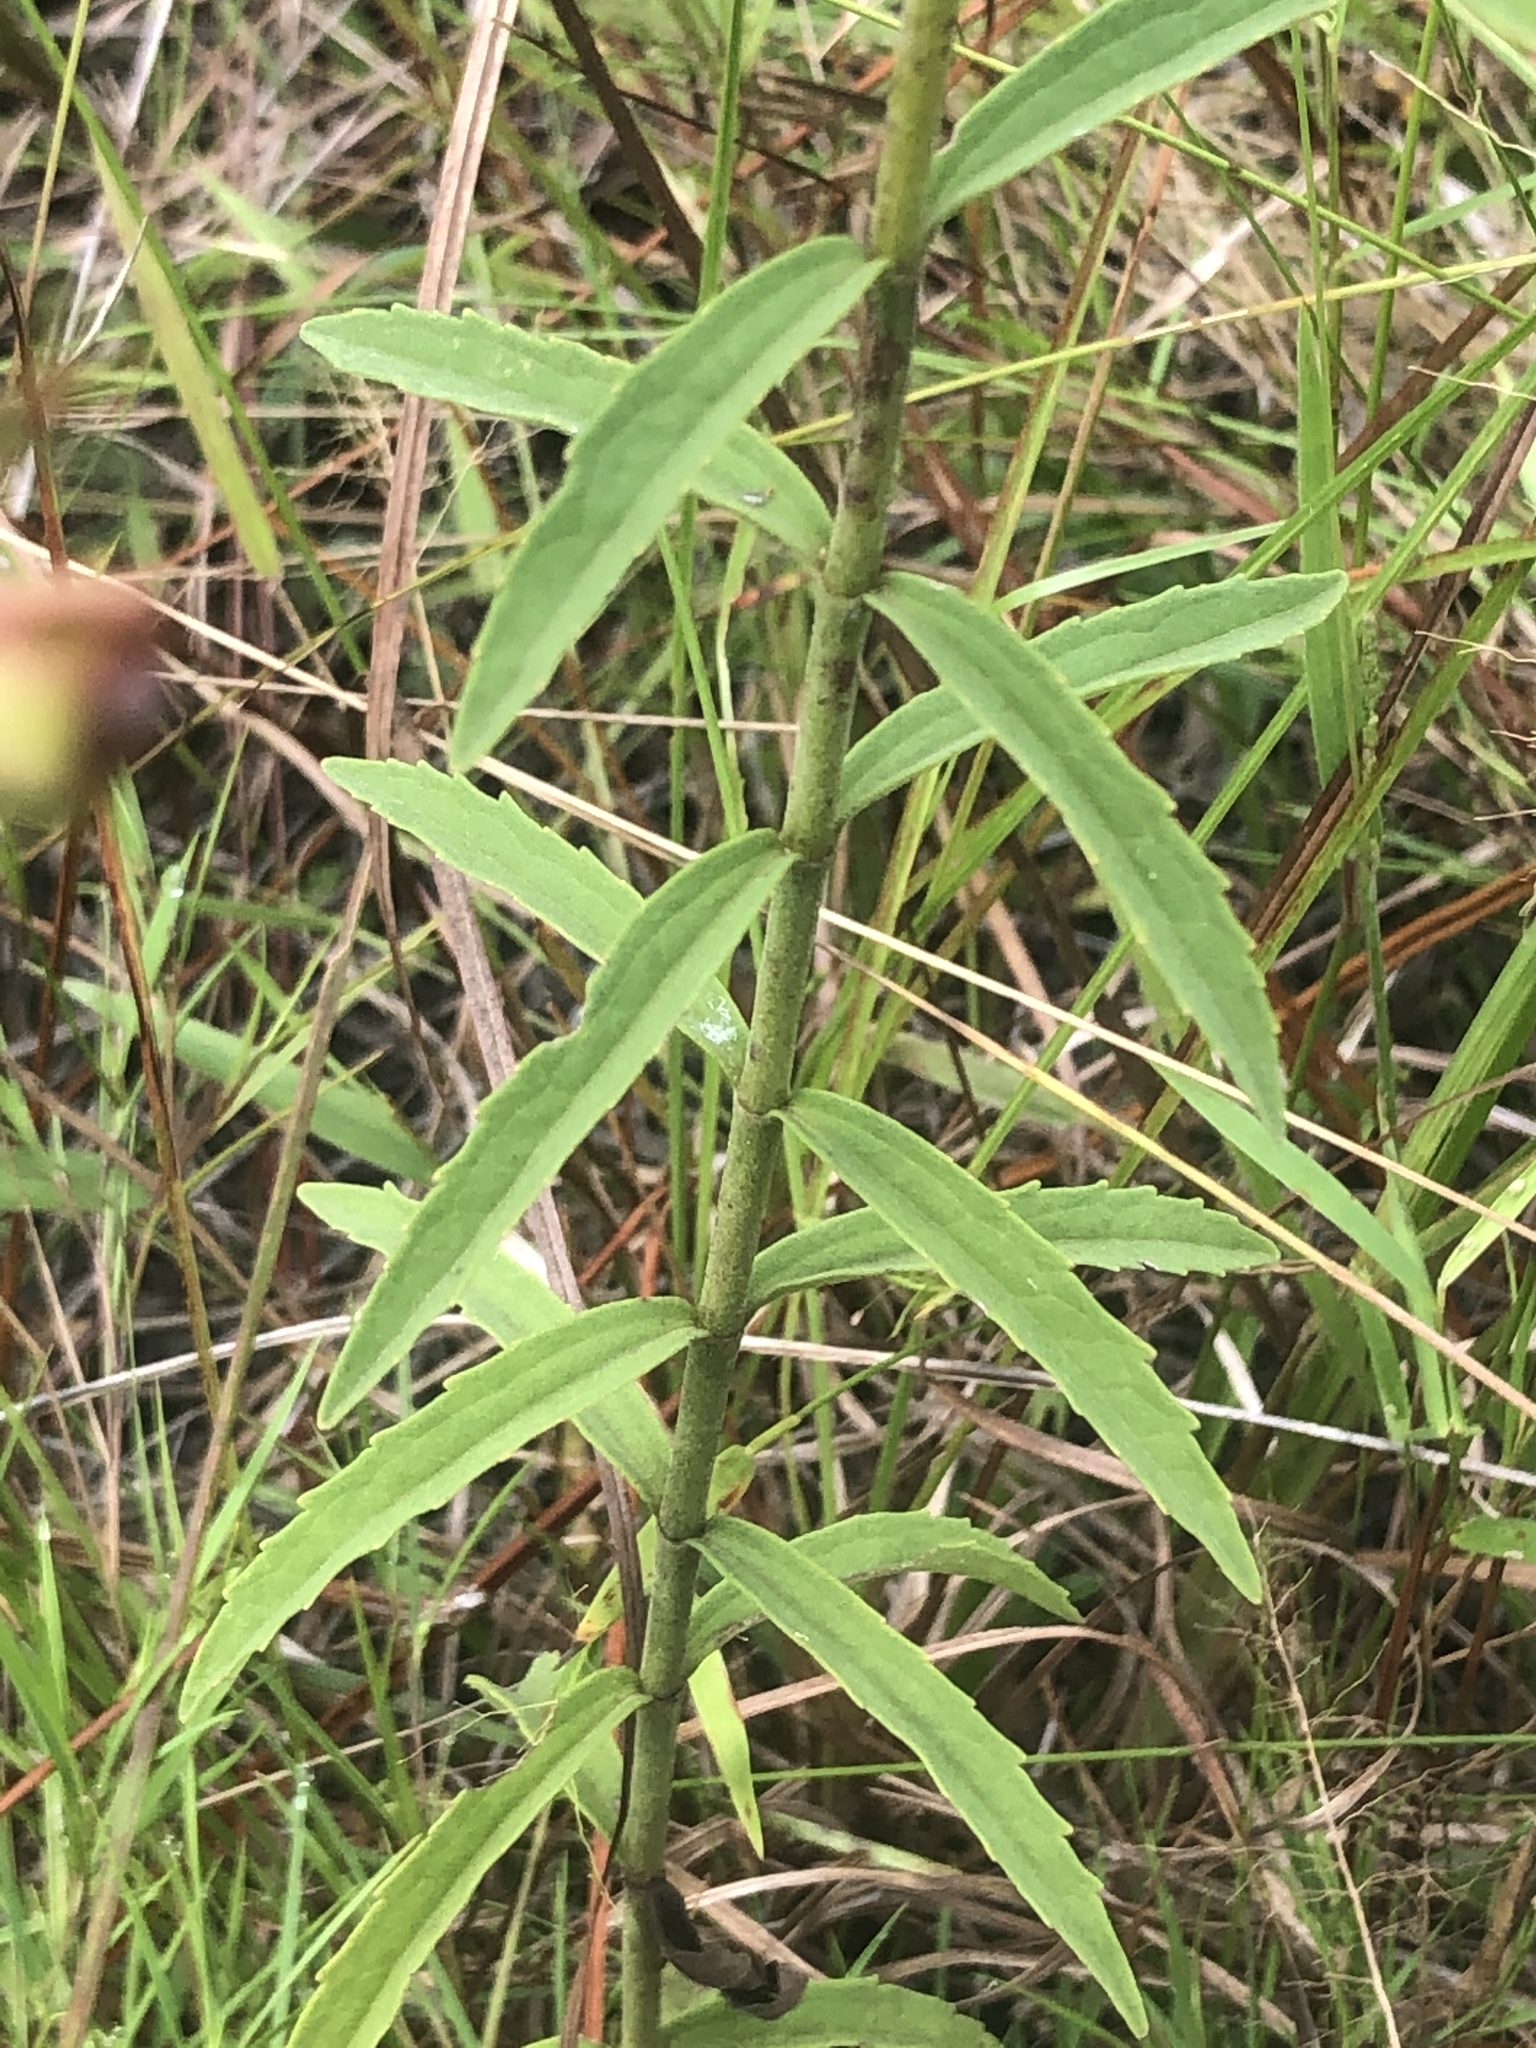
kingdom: Plantae
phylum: Tracheophyta
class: Magnoliopsida
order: Asterales
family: Asteraceae
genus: Eupatorium
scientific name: Eupatorium leucolepis
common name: Justiceweed
